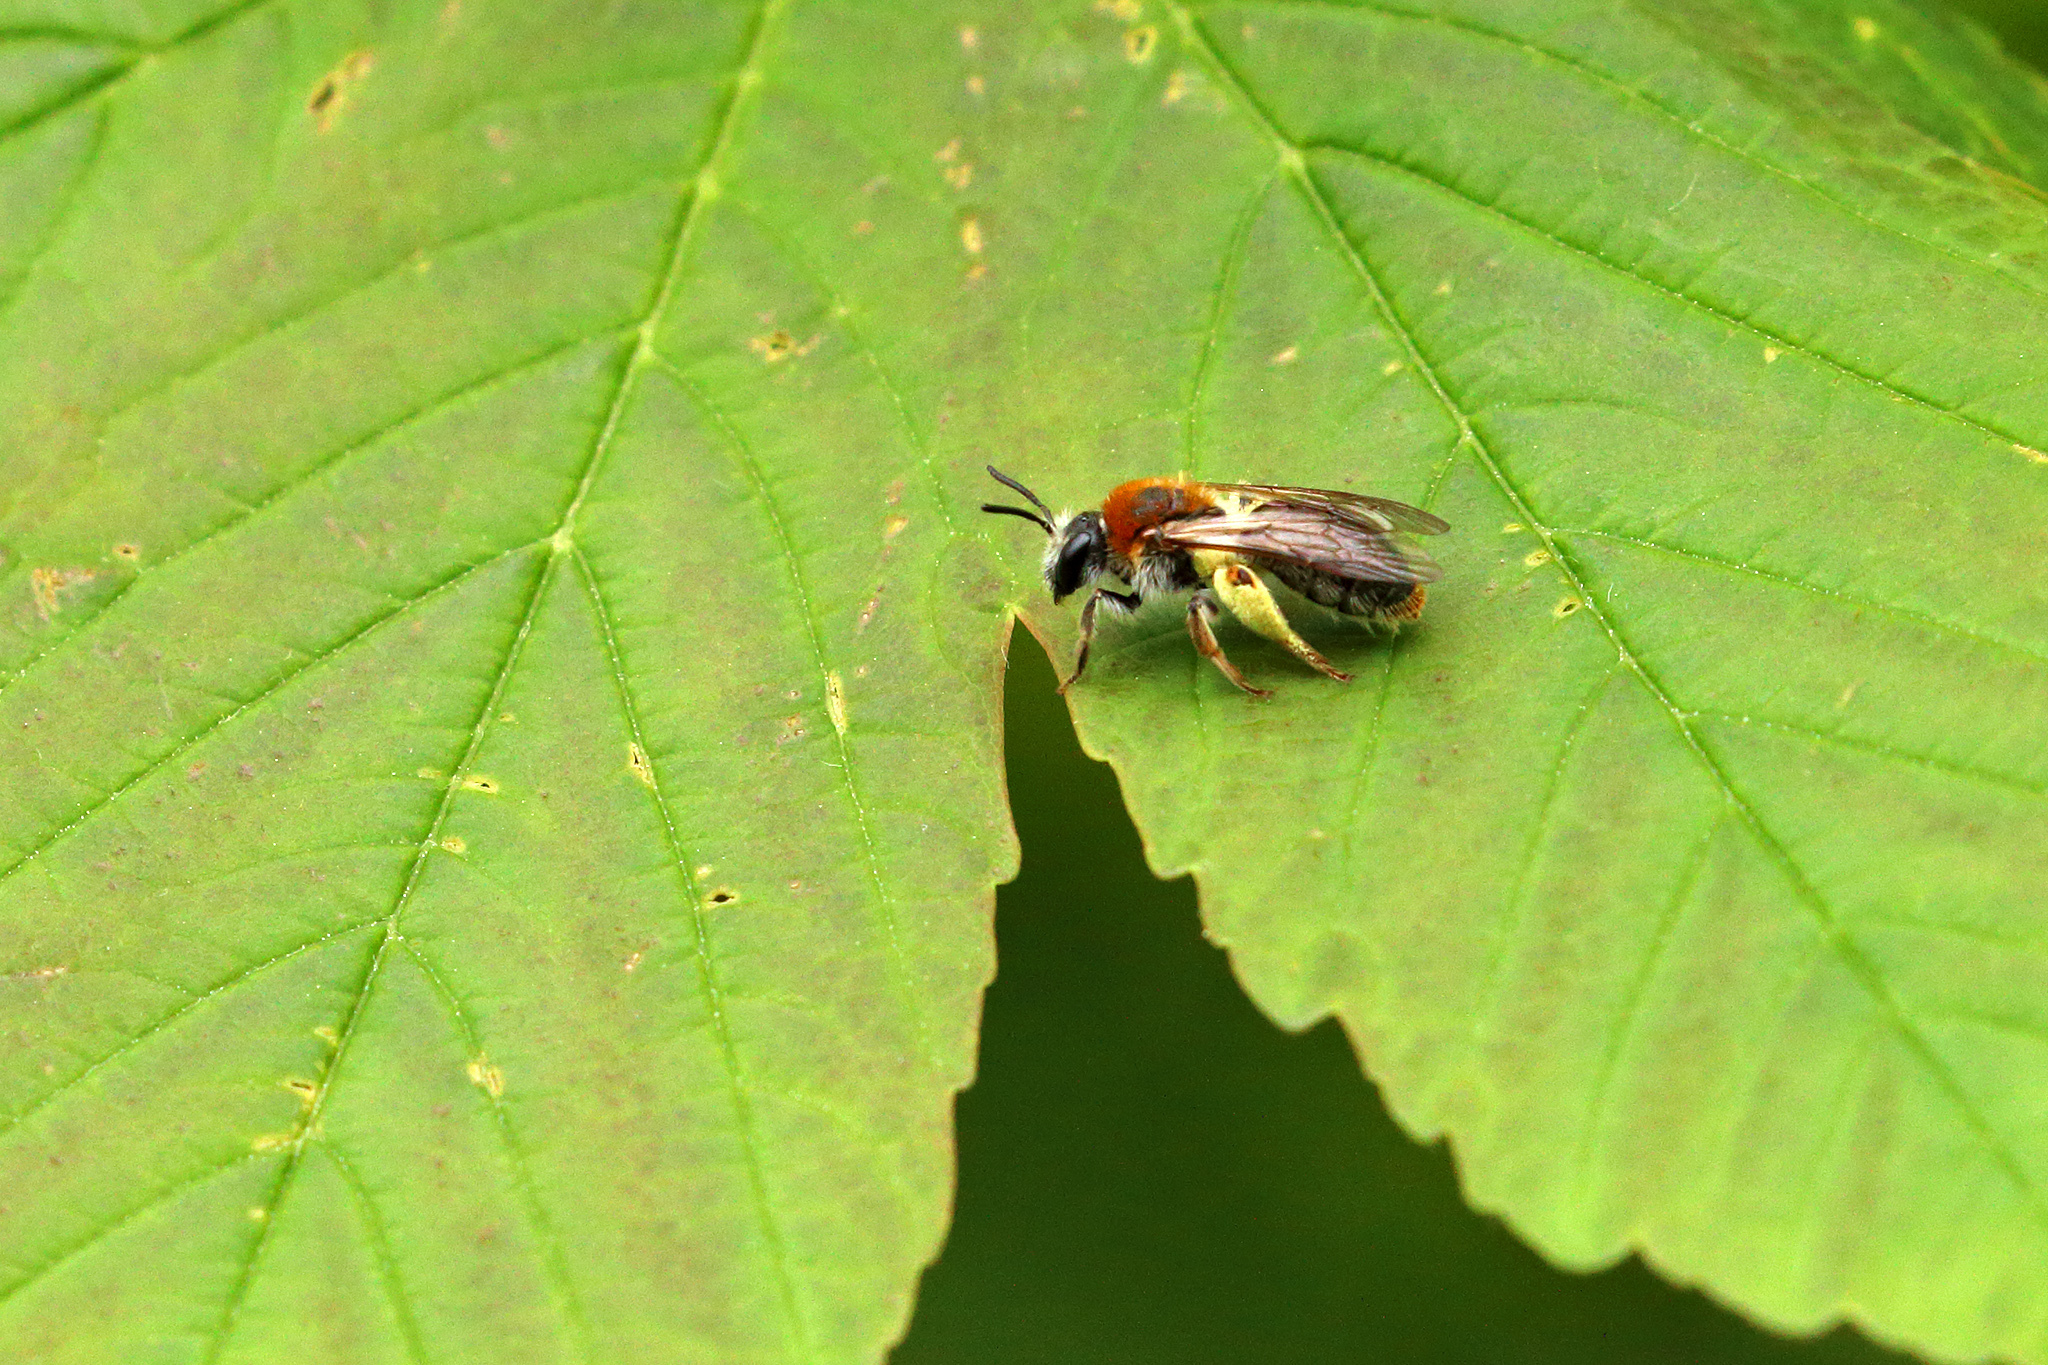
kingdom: Animalia
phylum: Arthropoda
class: Insecta
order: Hymenoptera
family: Andrenidae
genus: Andrena
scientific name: Andrena haemorrhoa
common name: Early mining bee
